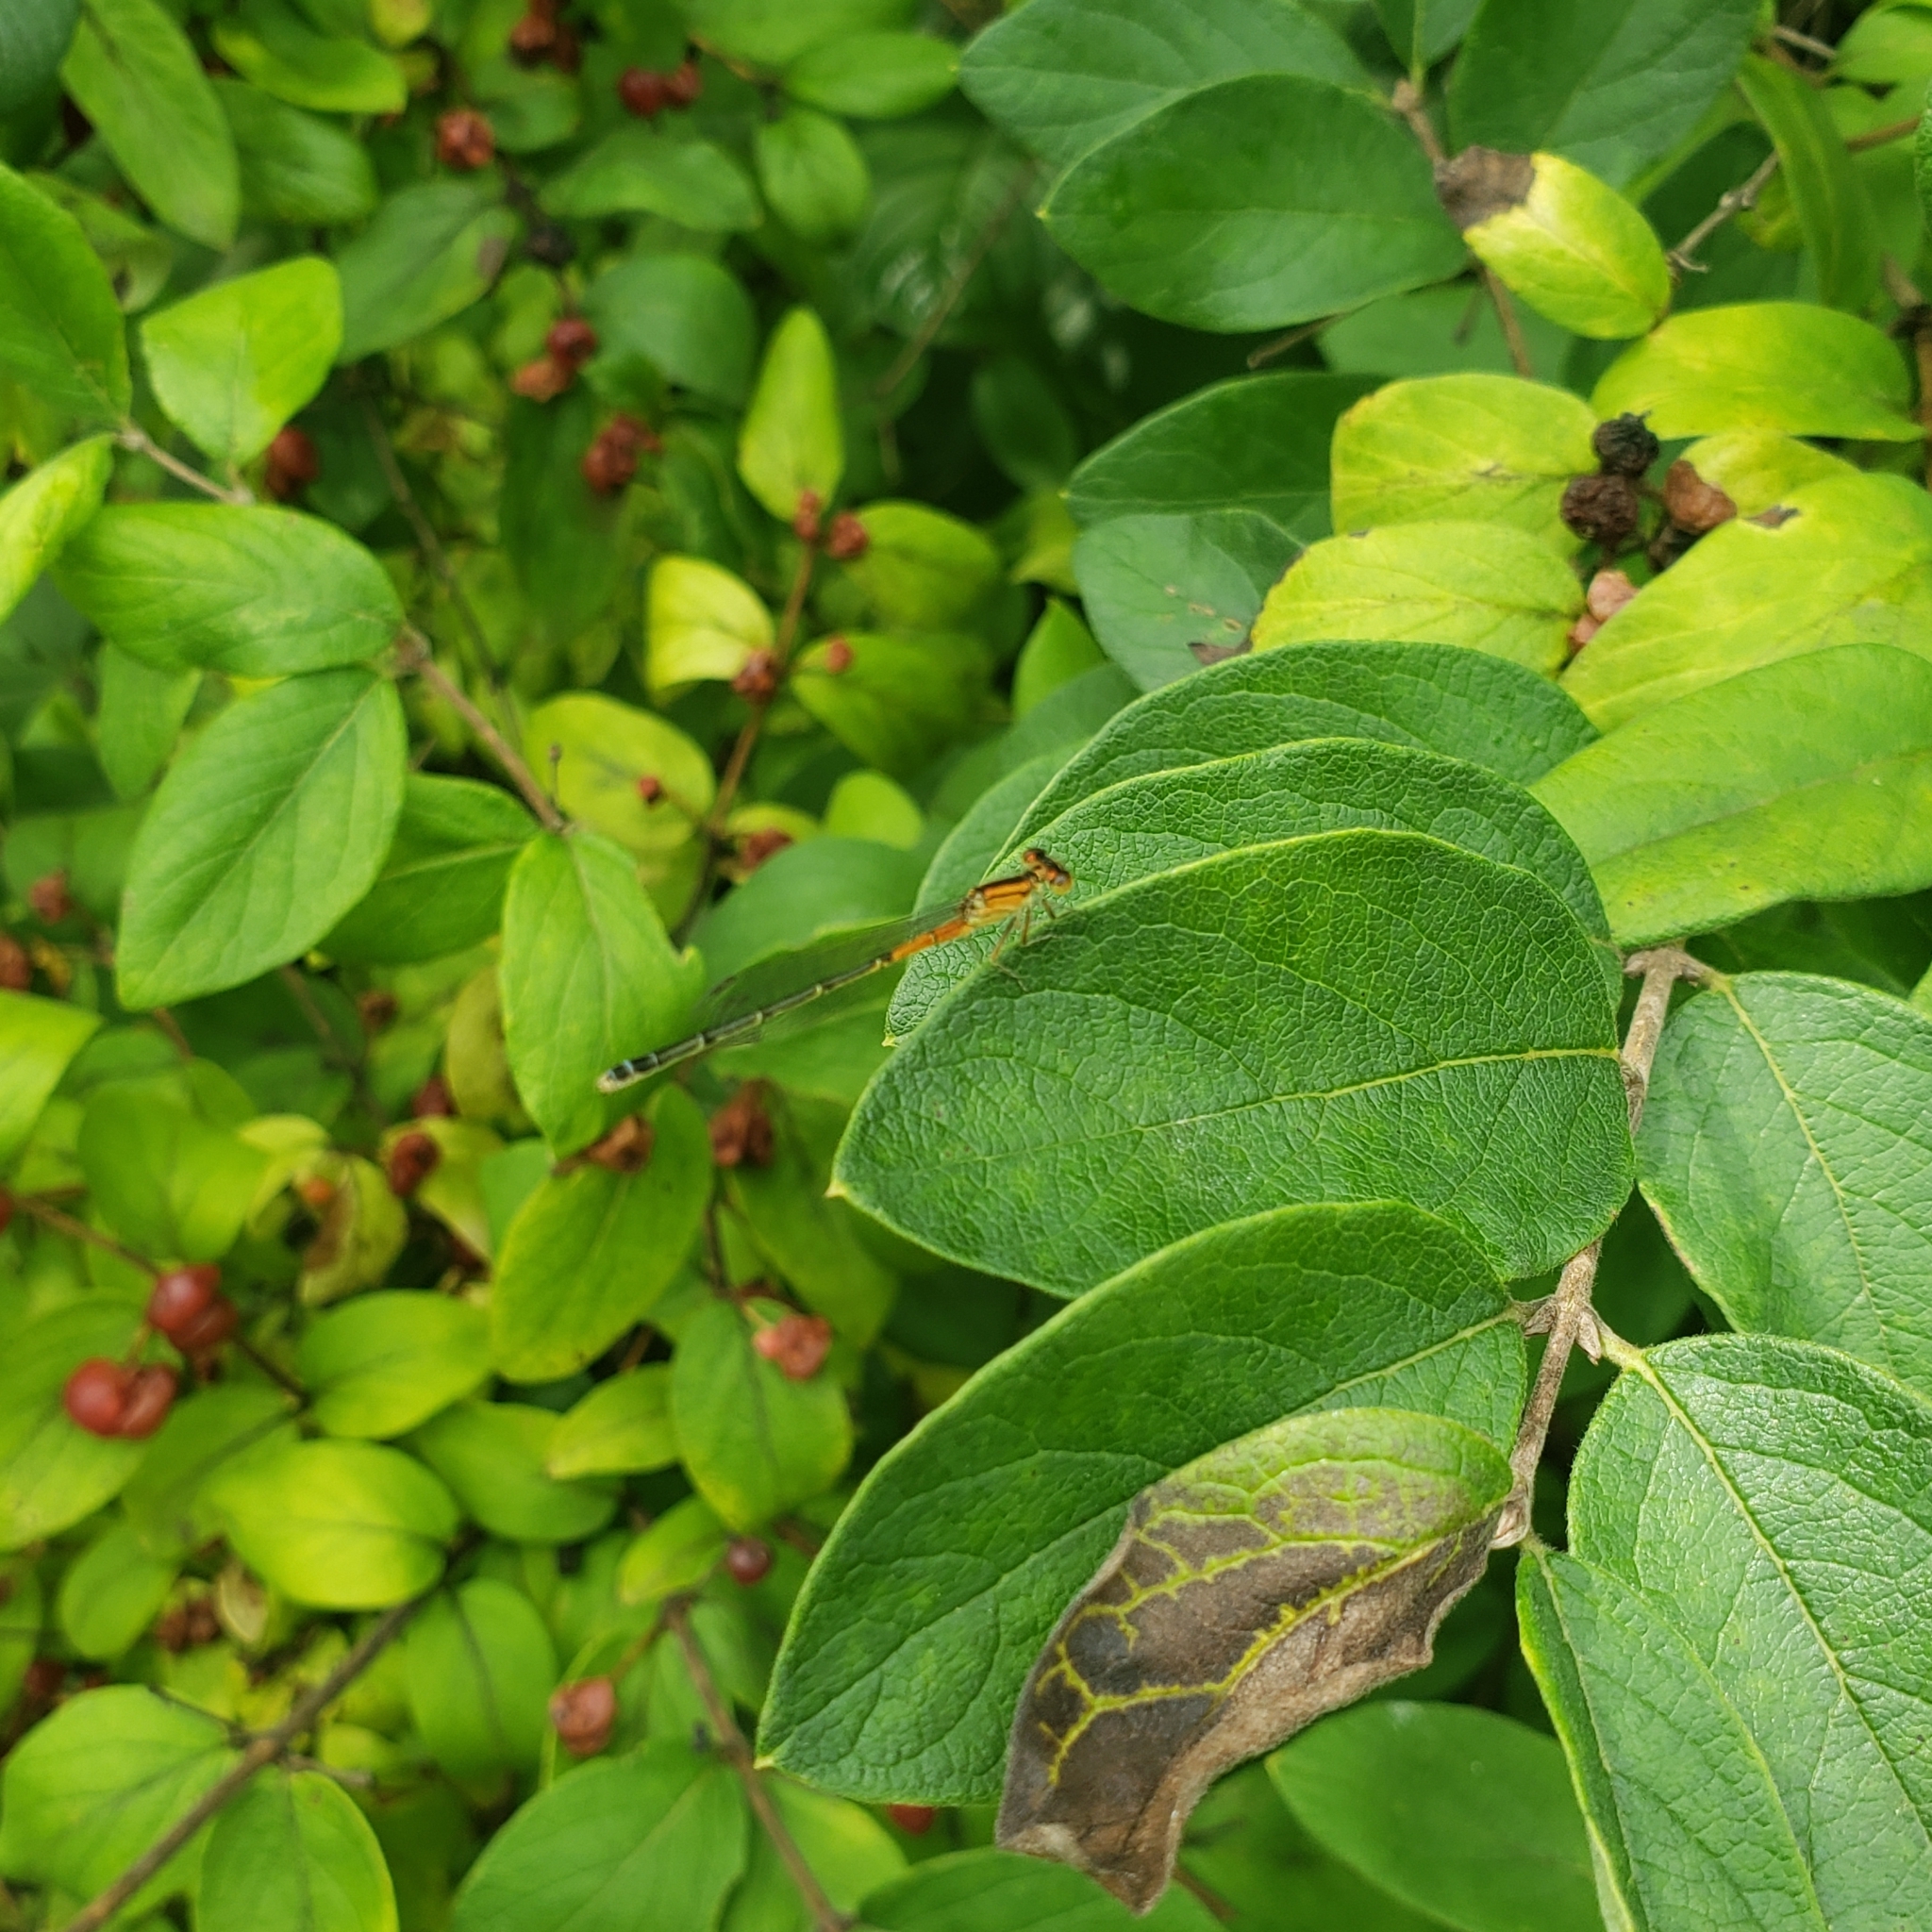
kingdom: Animalia
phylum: Arthropoda
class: Insecta
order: Odonata
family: Coenagrionidae
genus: Ischnura
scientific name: Ischnura verticalis
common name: Eastern forktail
